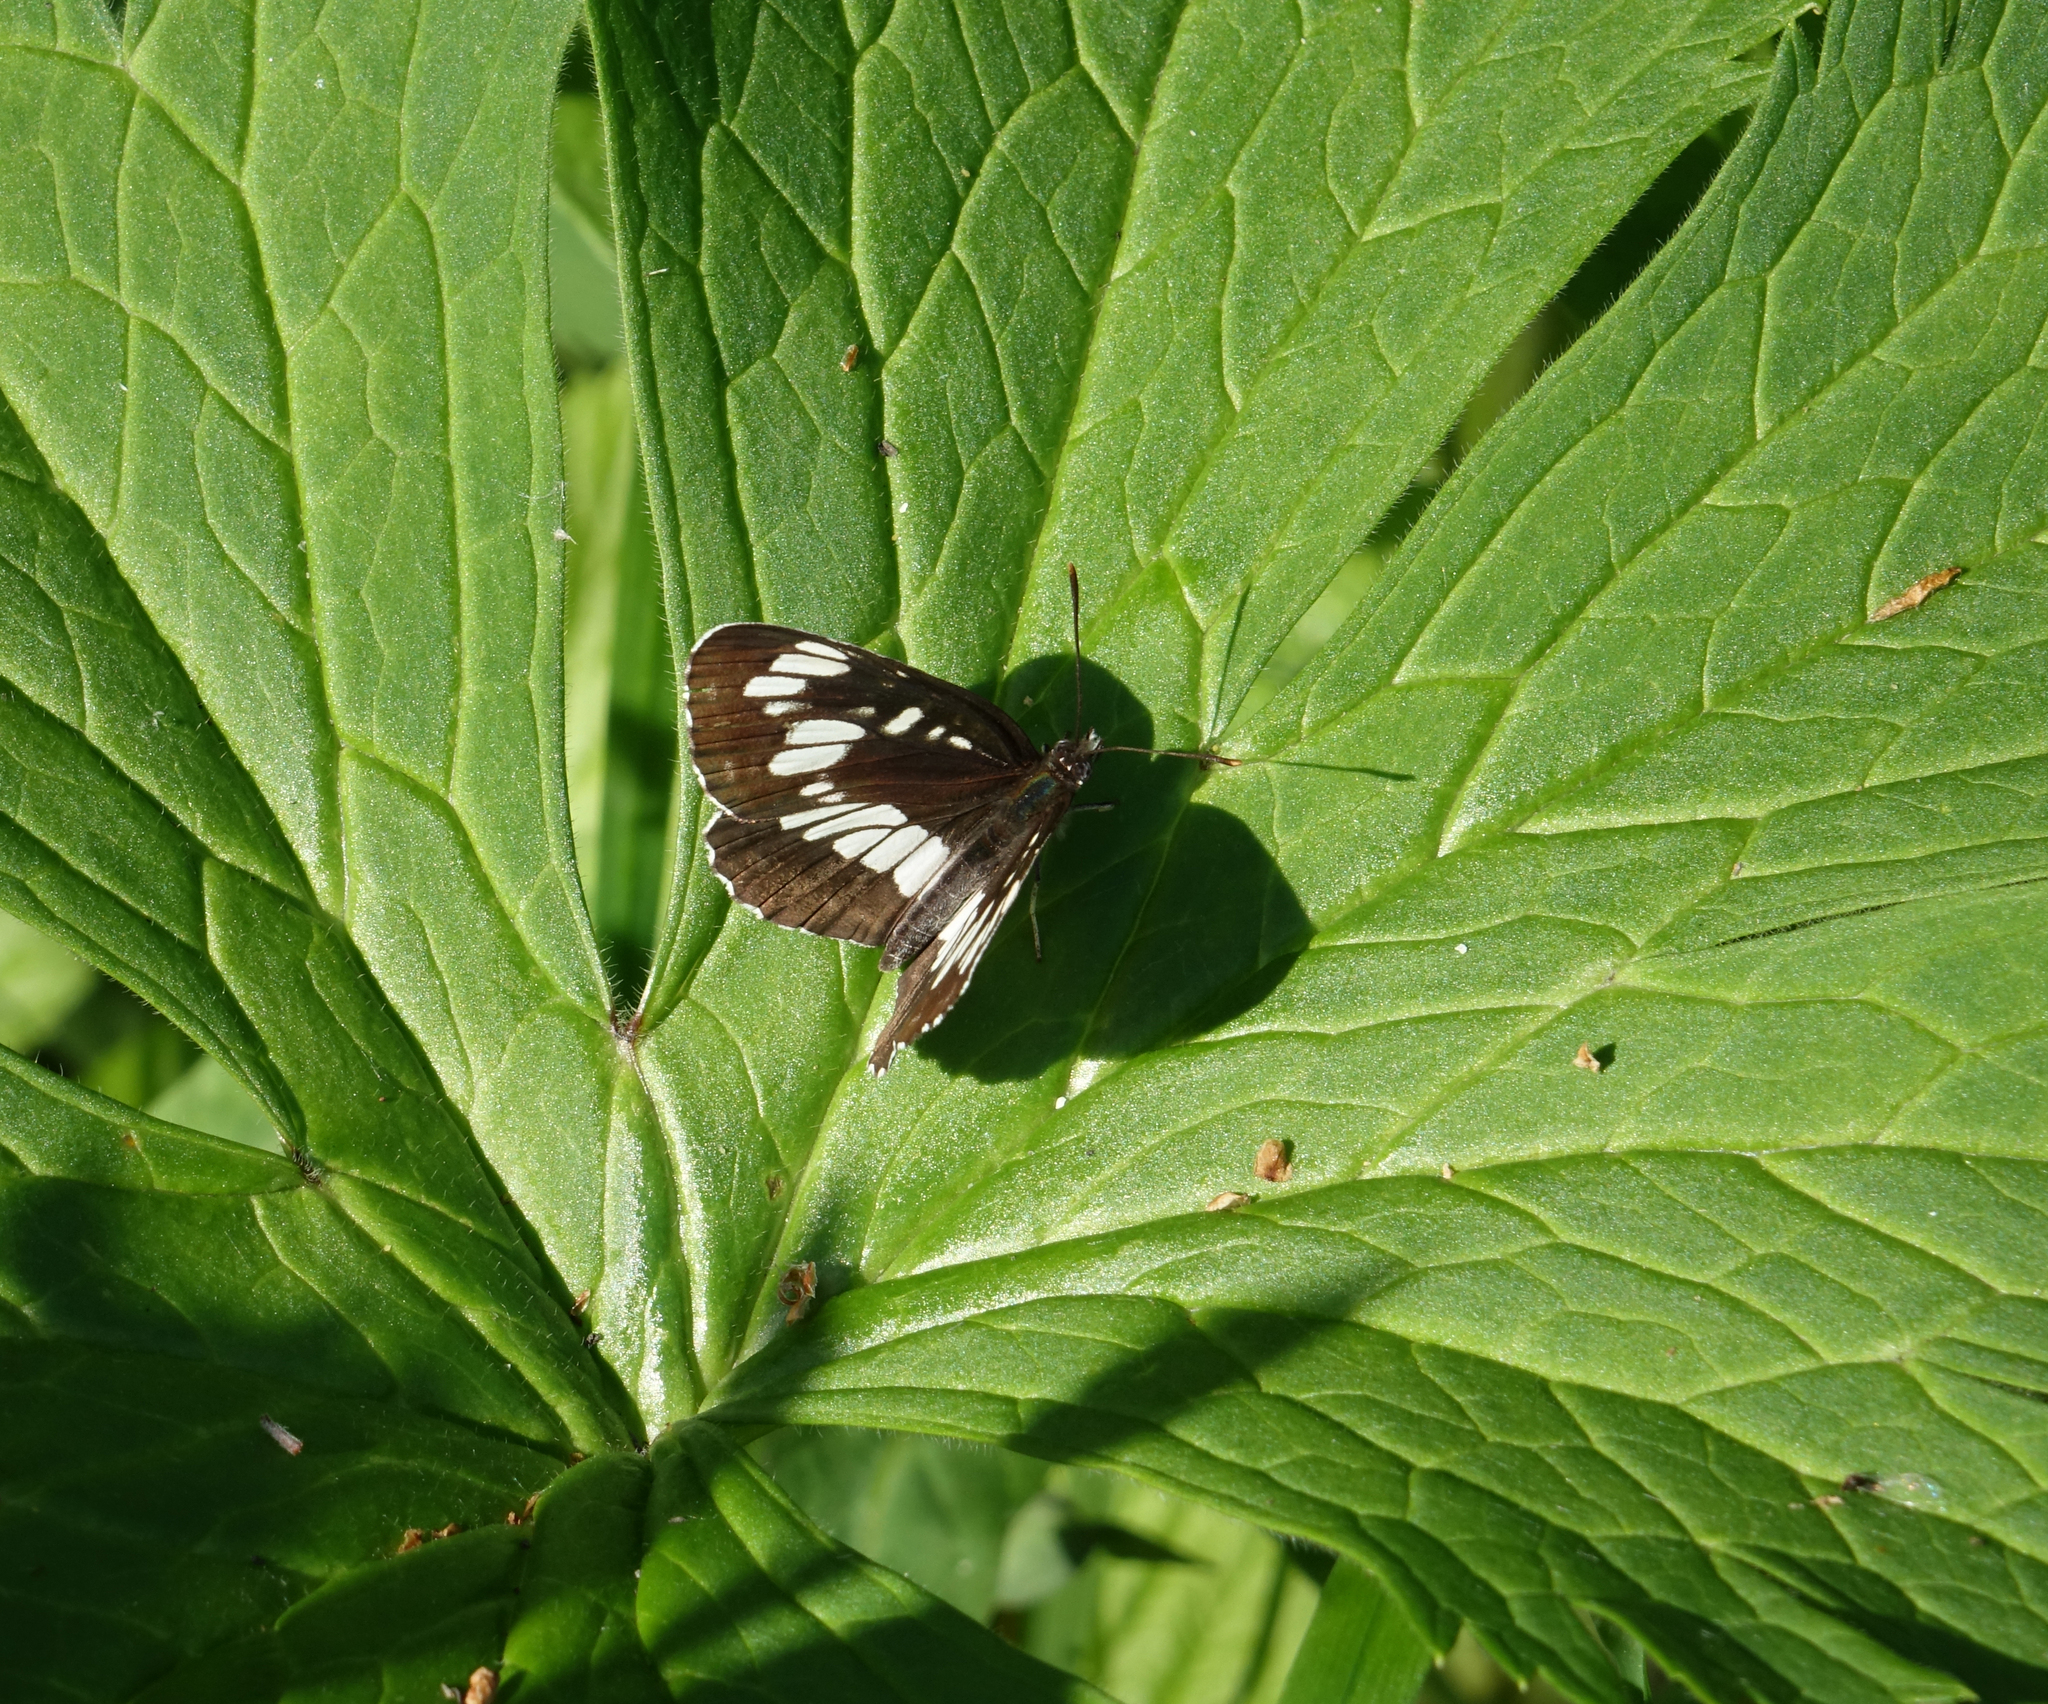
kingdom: Animalia
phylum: Arthropoda
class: Insecta
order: Lepidoptera
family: Nymphalidae
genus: Neptis
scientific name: Neptis rivularis
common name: Hungarian glider
